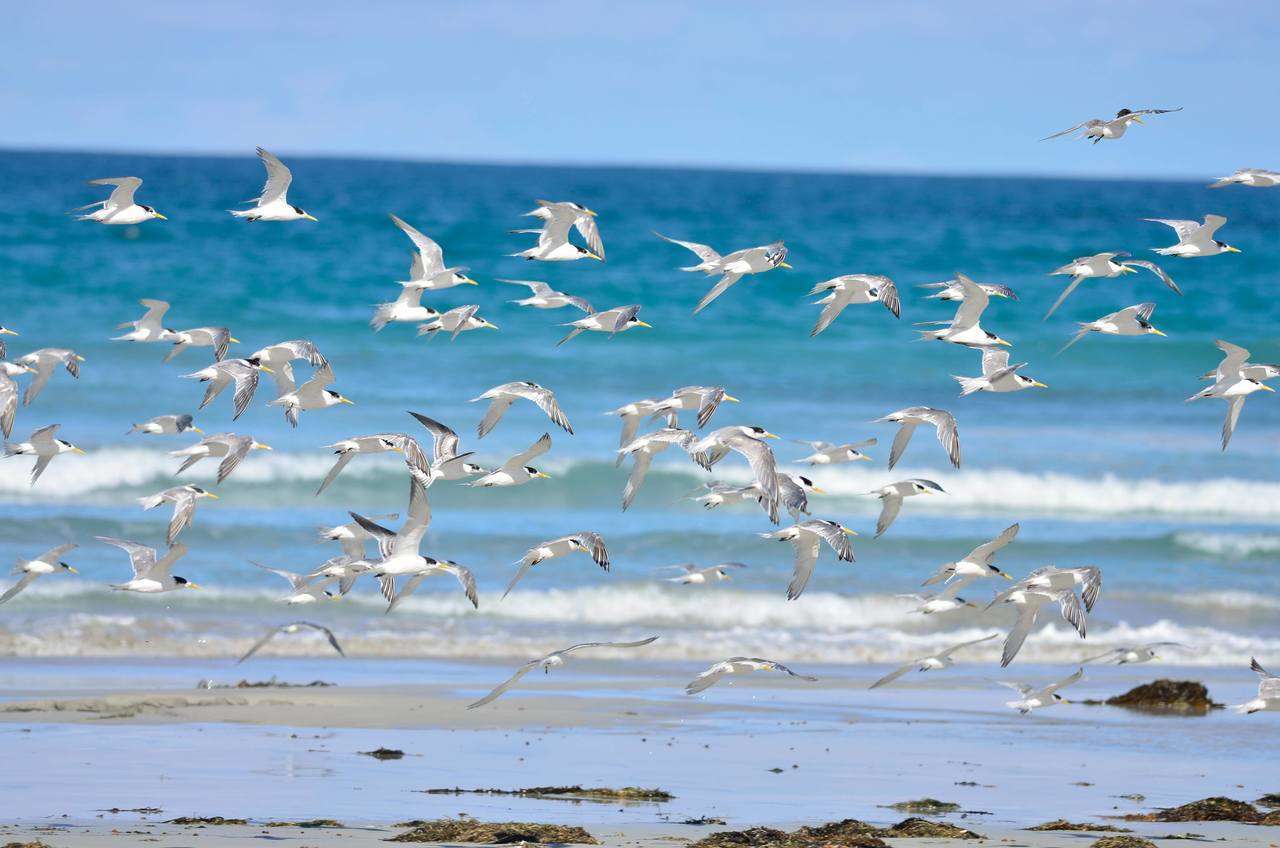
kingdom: Animalia
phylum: Chordata
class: Aves
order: Charadriiformes
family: Laridae
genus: Thalasseus
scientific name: Thalasseus bergii
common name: Greater crested tern
